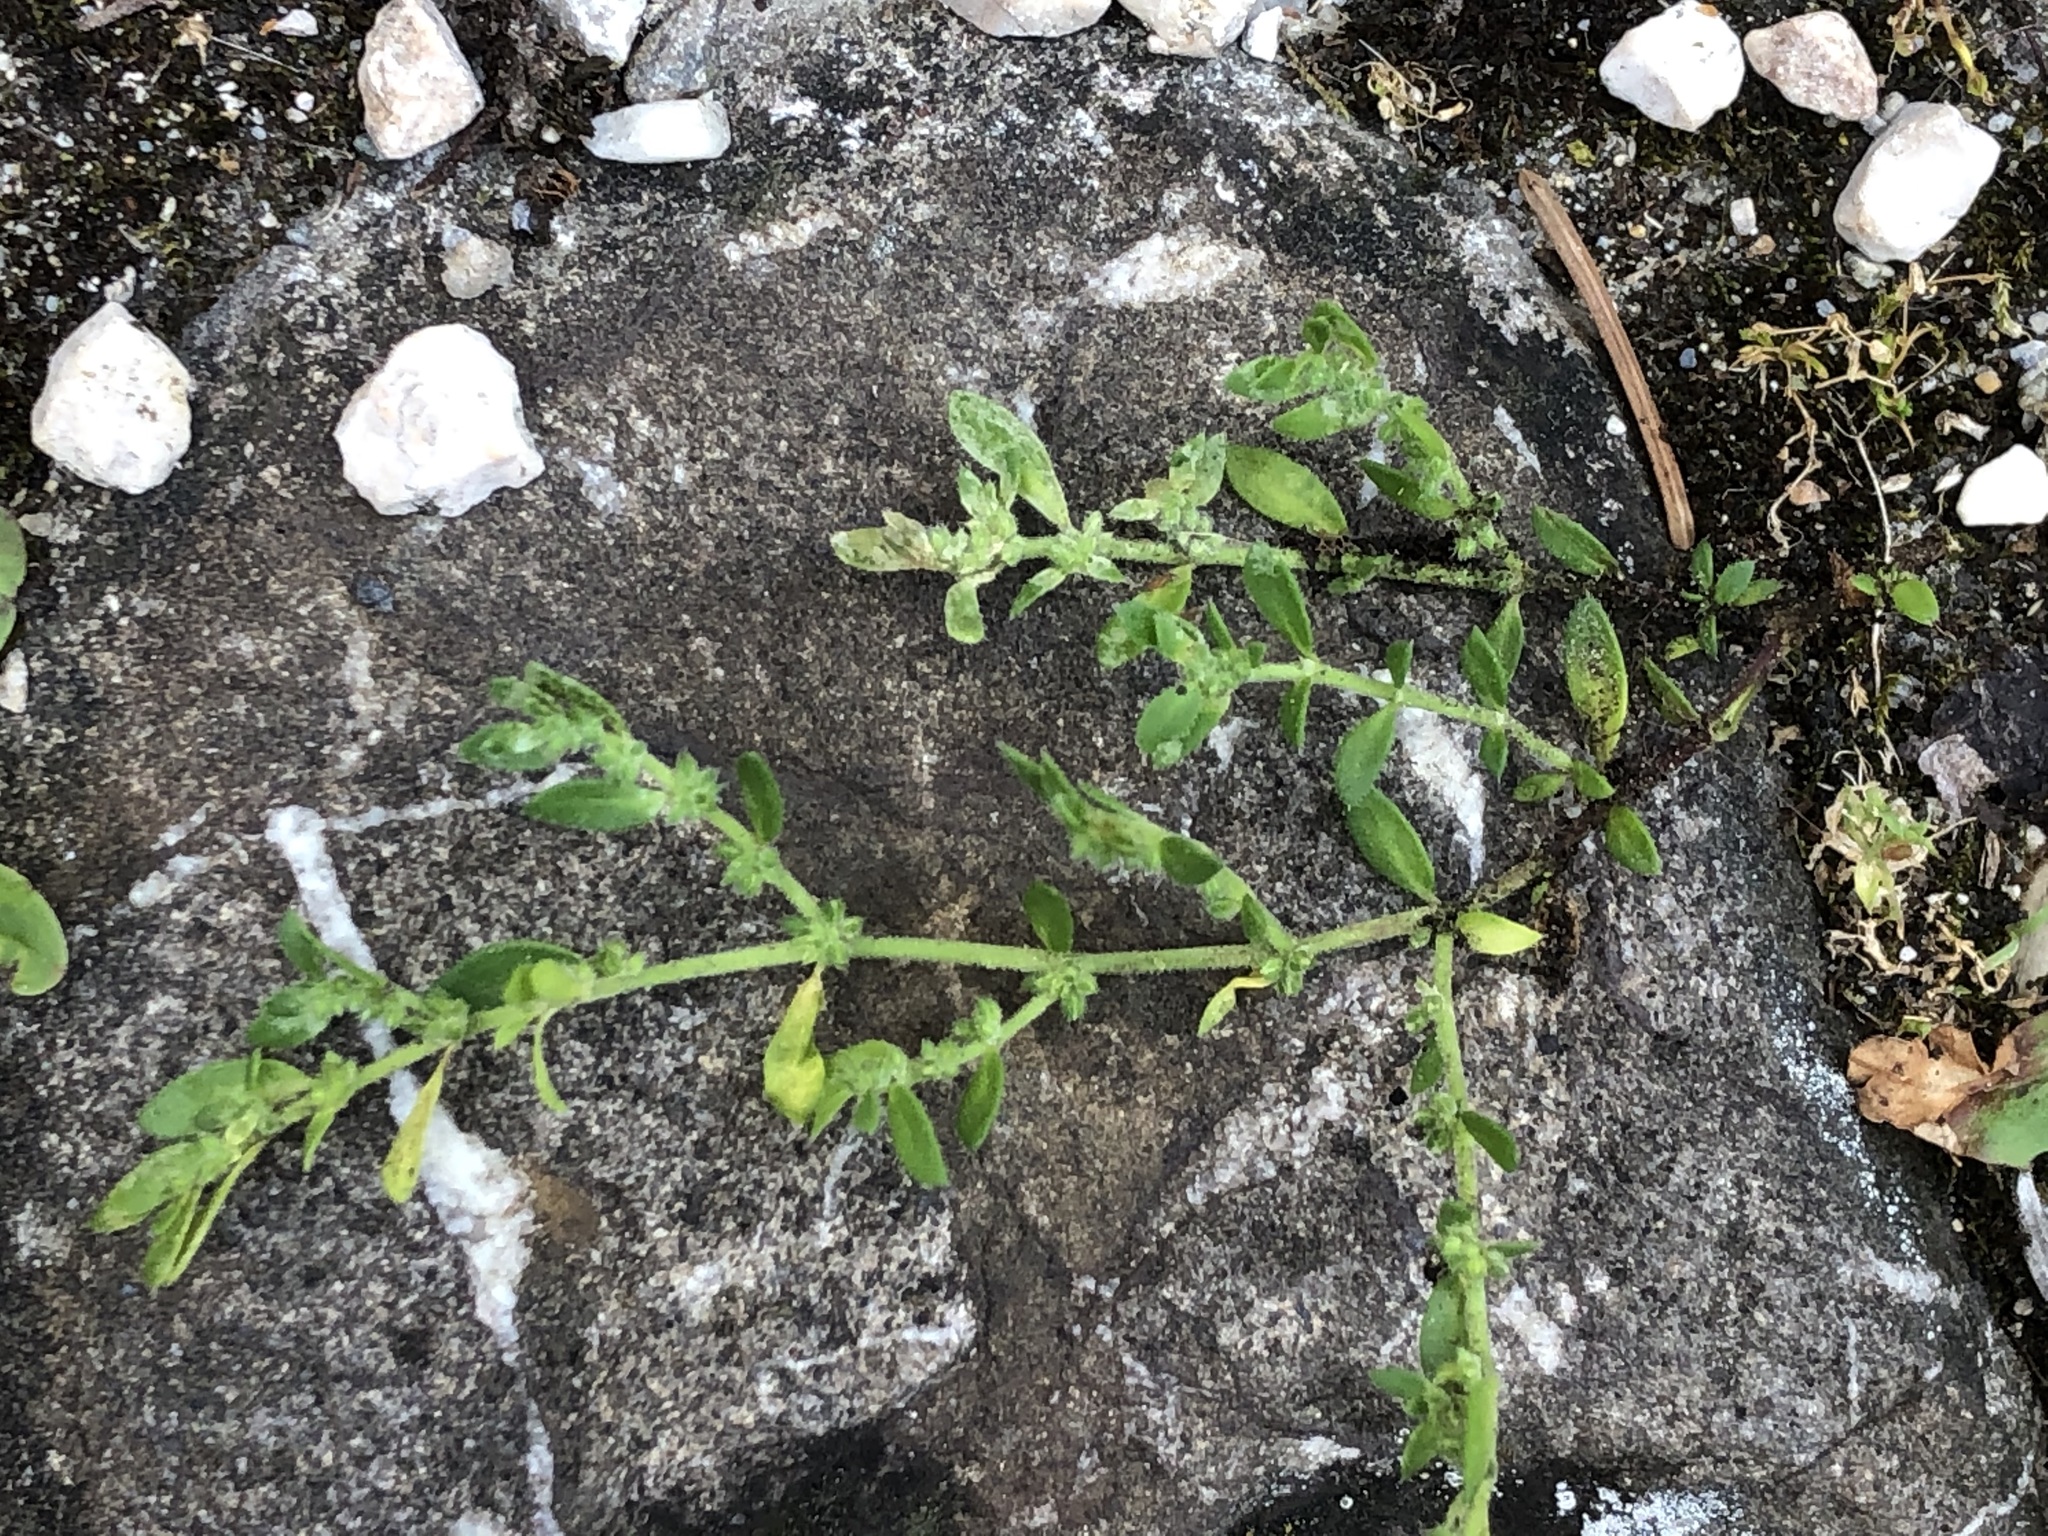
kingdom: Plantae
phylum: Tracheophyta
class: Magnoliopsida
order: Caryophyllales
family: Caryophyllaceae
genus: Herniaria
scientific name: Herniaria hirsuta
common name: Hairy rupturewort
